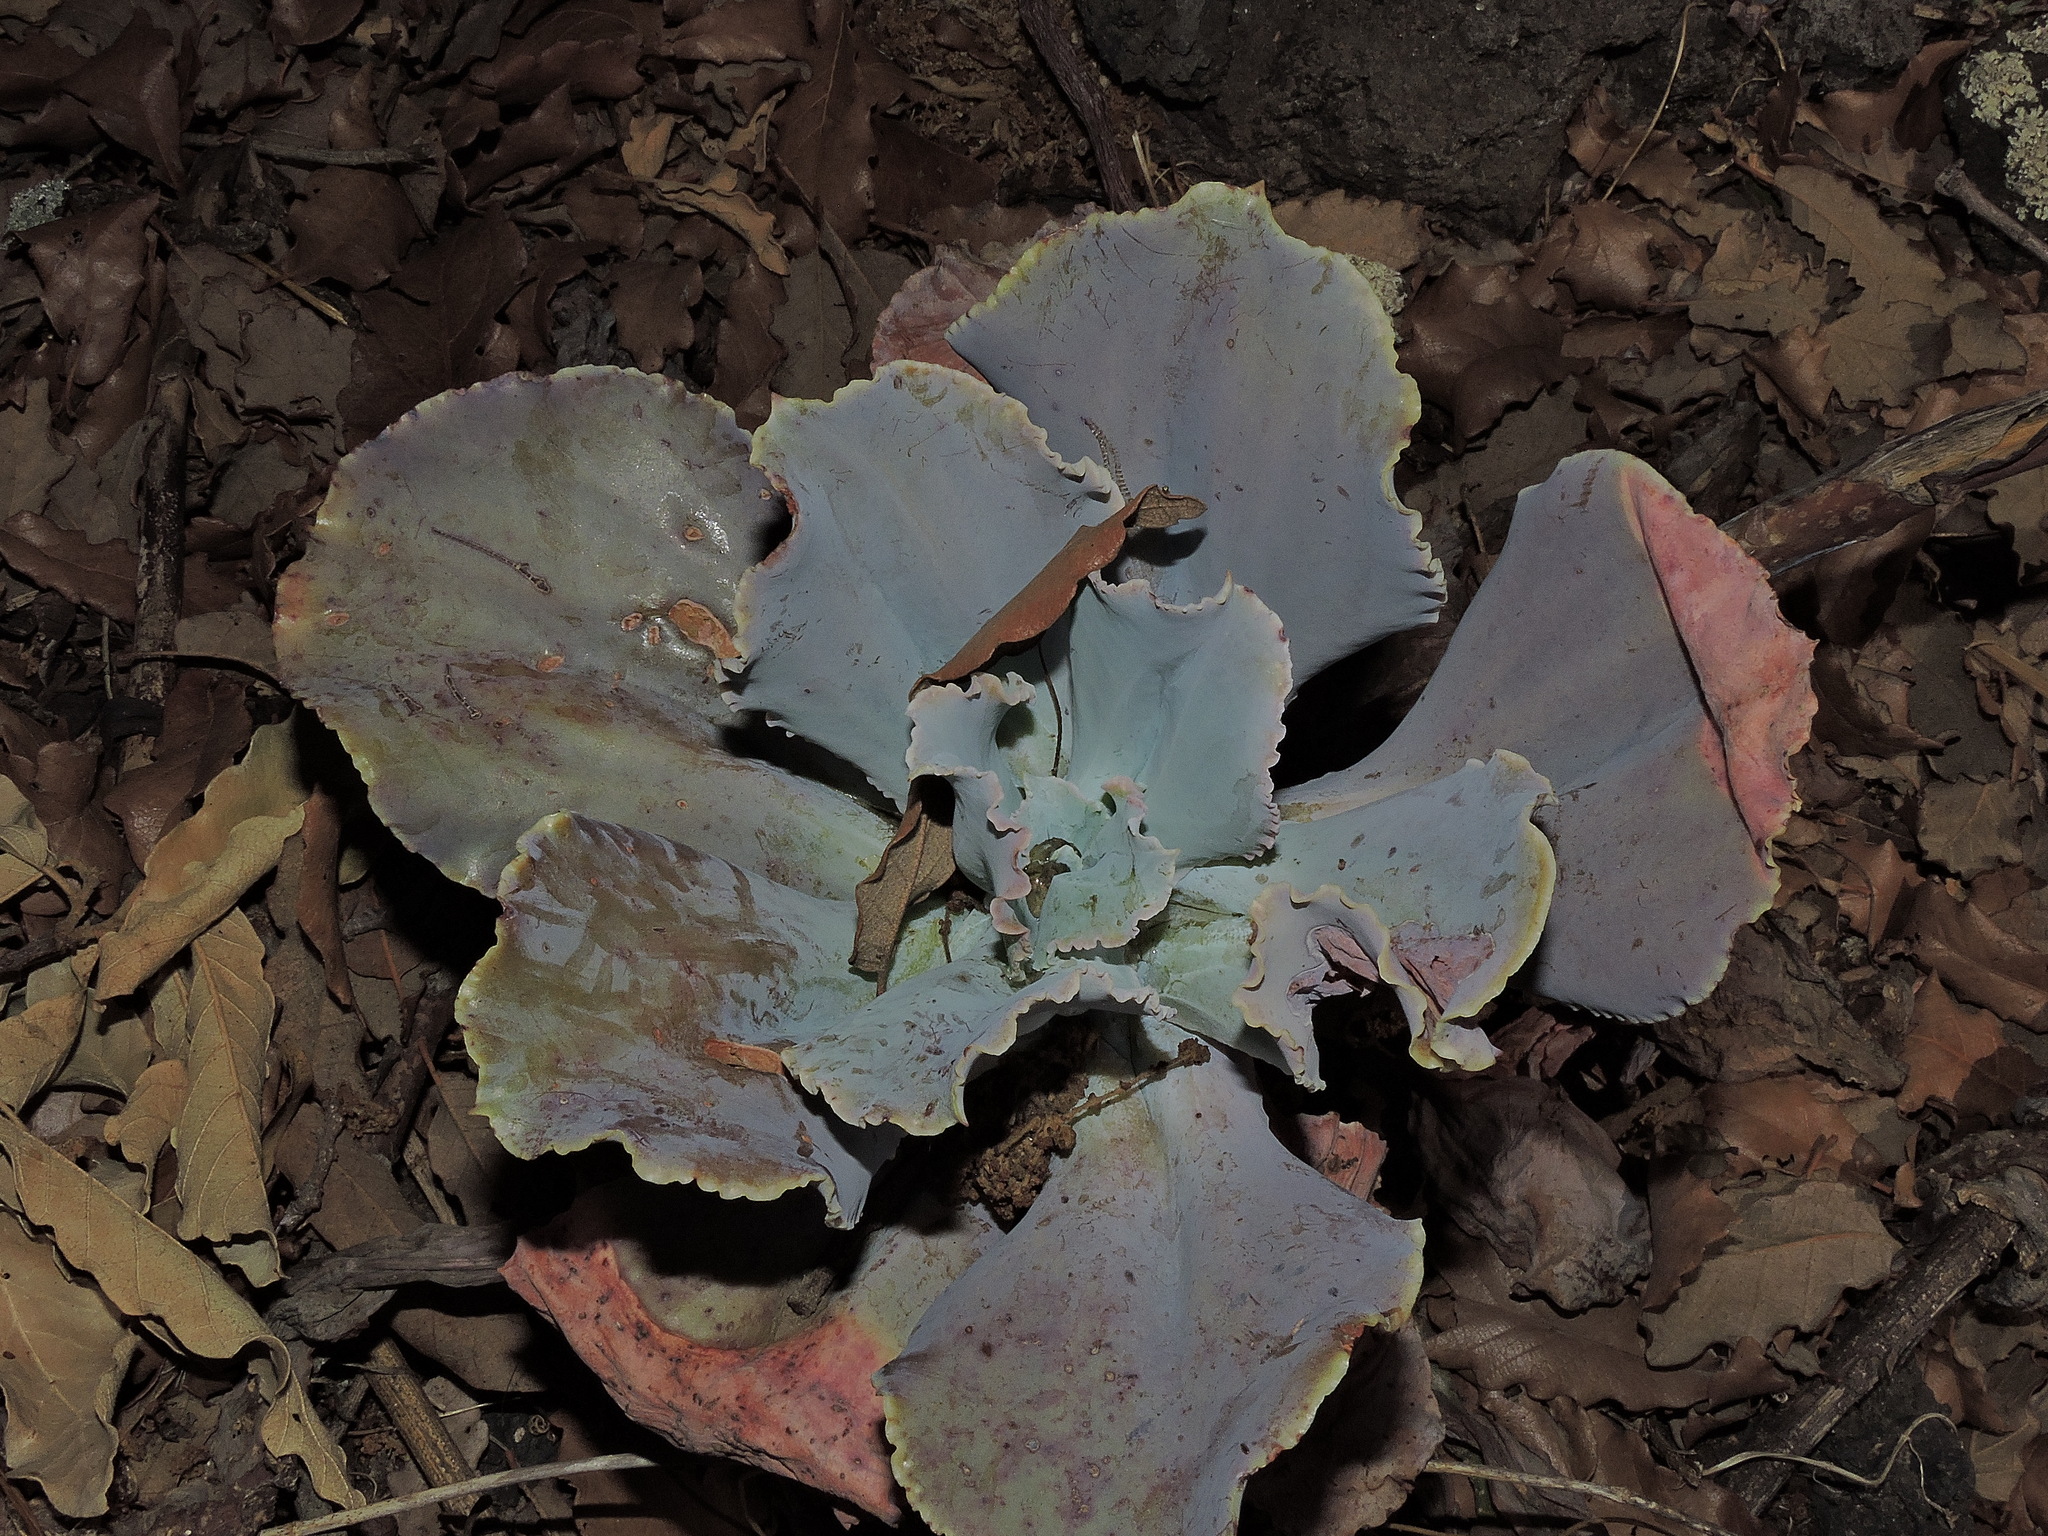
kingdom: Plantae
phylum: Tracheophyta
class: Magnoliopsida
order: Saxifragales
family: Crassulaceae
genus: Echeveria
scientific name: Echeveria gibbiflora
